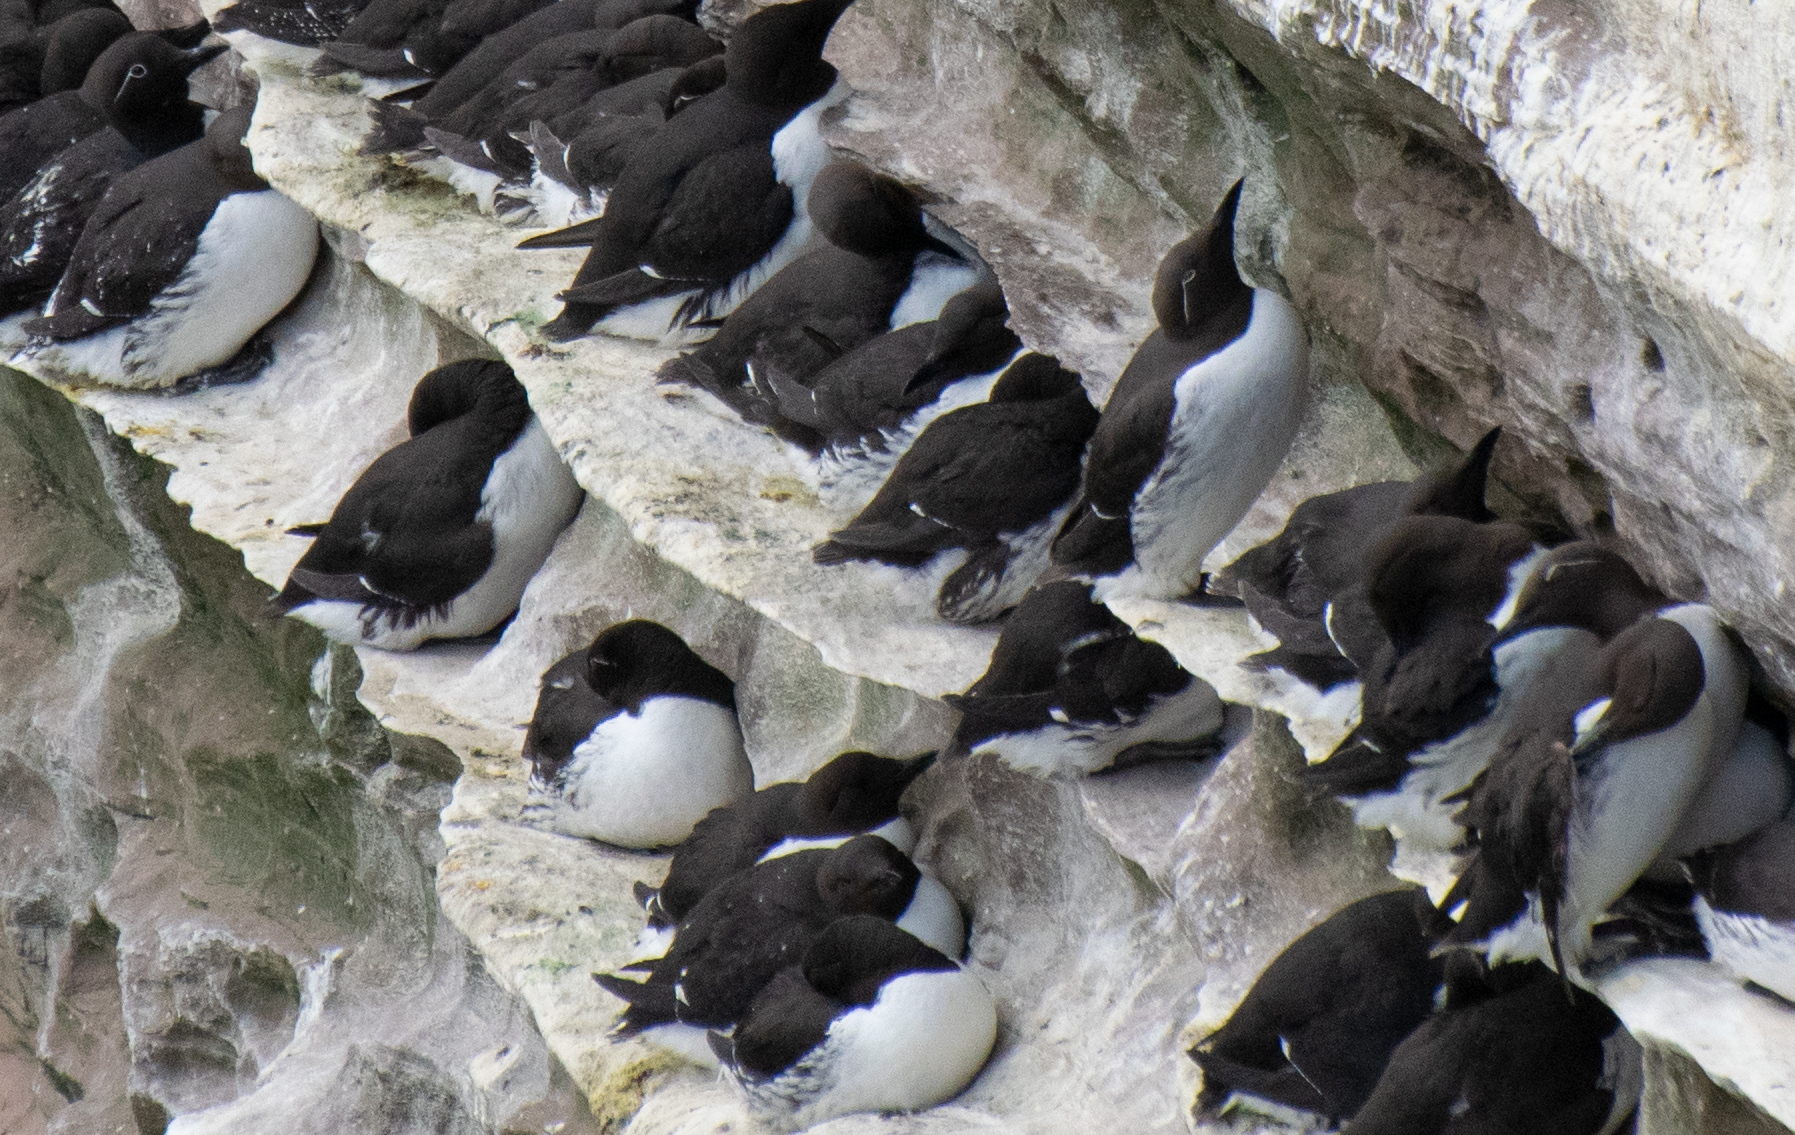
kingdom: Animalia
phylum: Chordata
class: Aves
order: Charadriiformes
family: Alcidae
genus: Uria
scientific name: Uria aalge
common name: Common murre
